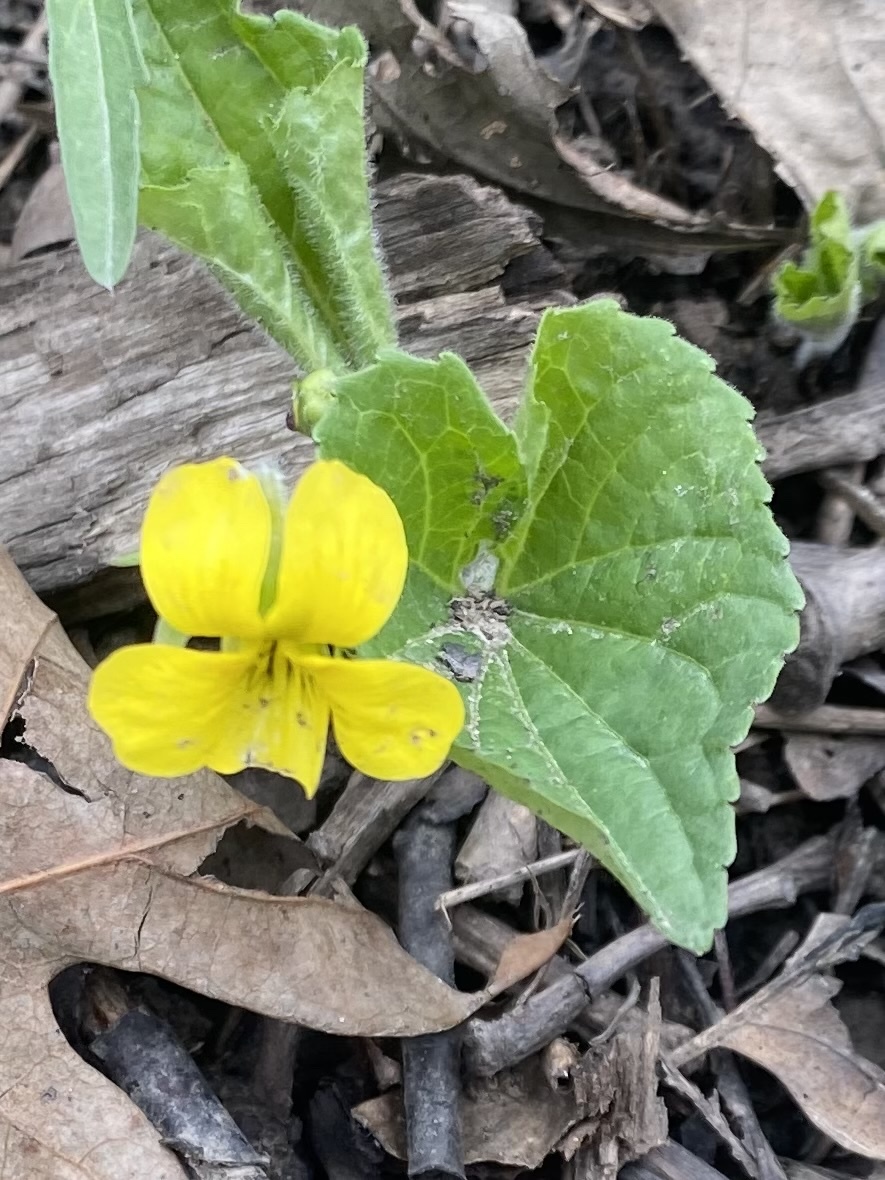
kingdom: Plantae
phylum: Tracheophyta
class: Magnoliopsida
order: Malpighiales
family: Violaceae
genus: Viola
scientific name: Viola eriocarpa
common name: Smooth yellow violet
